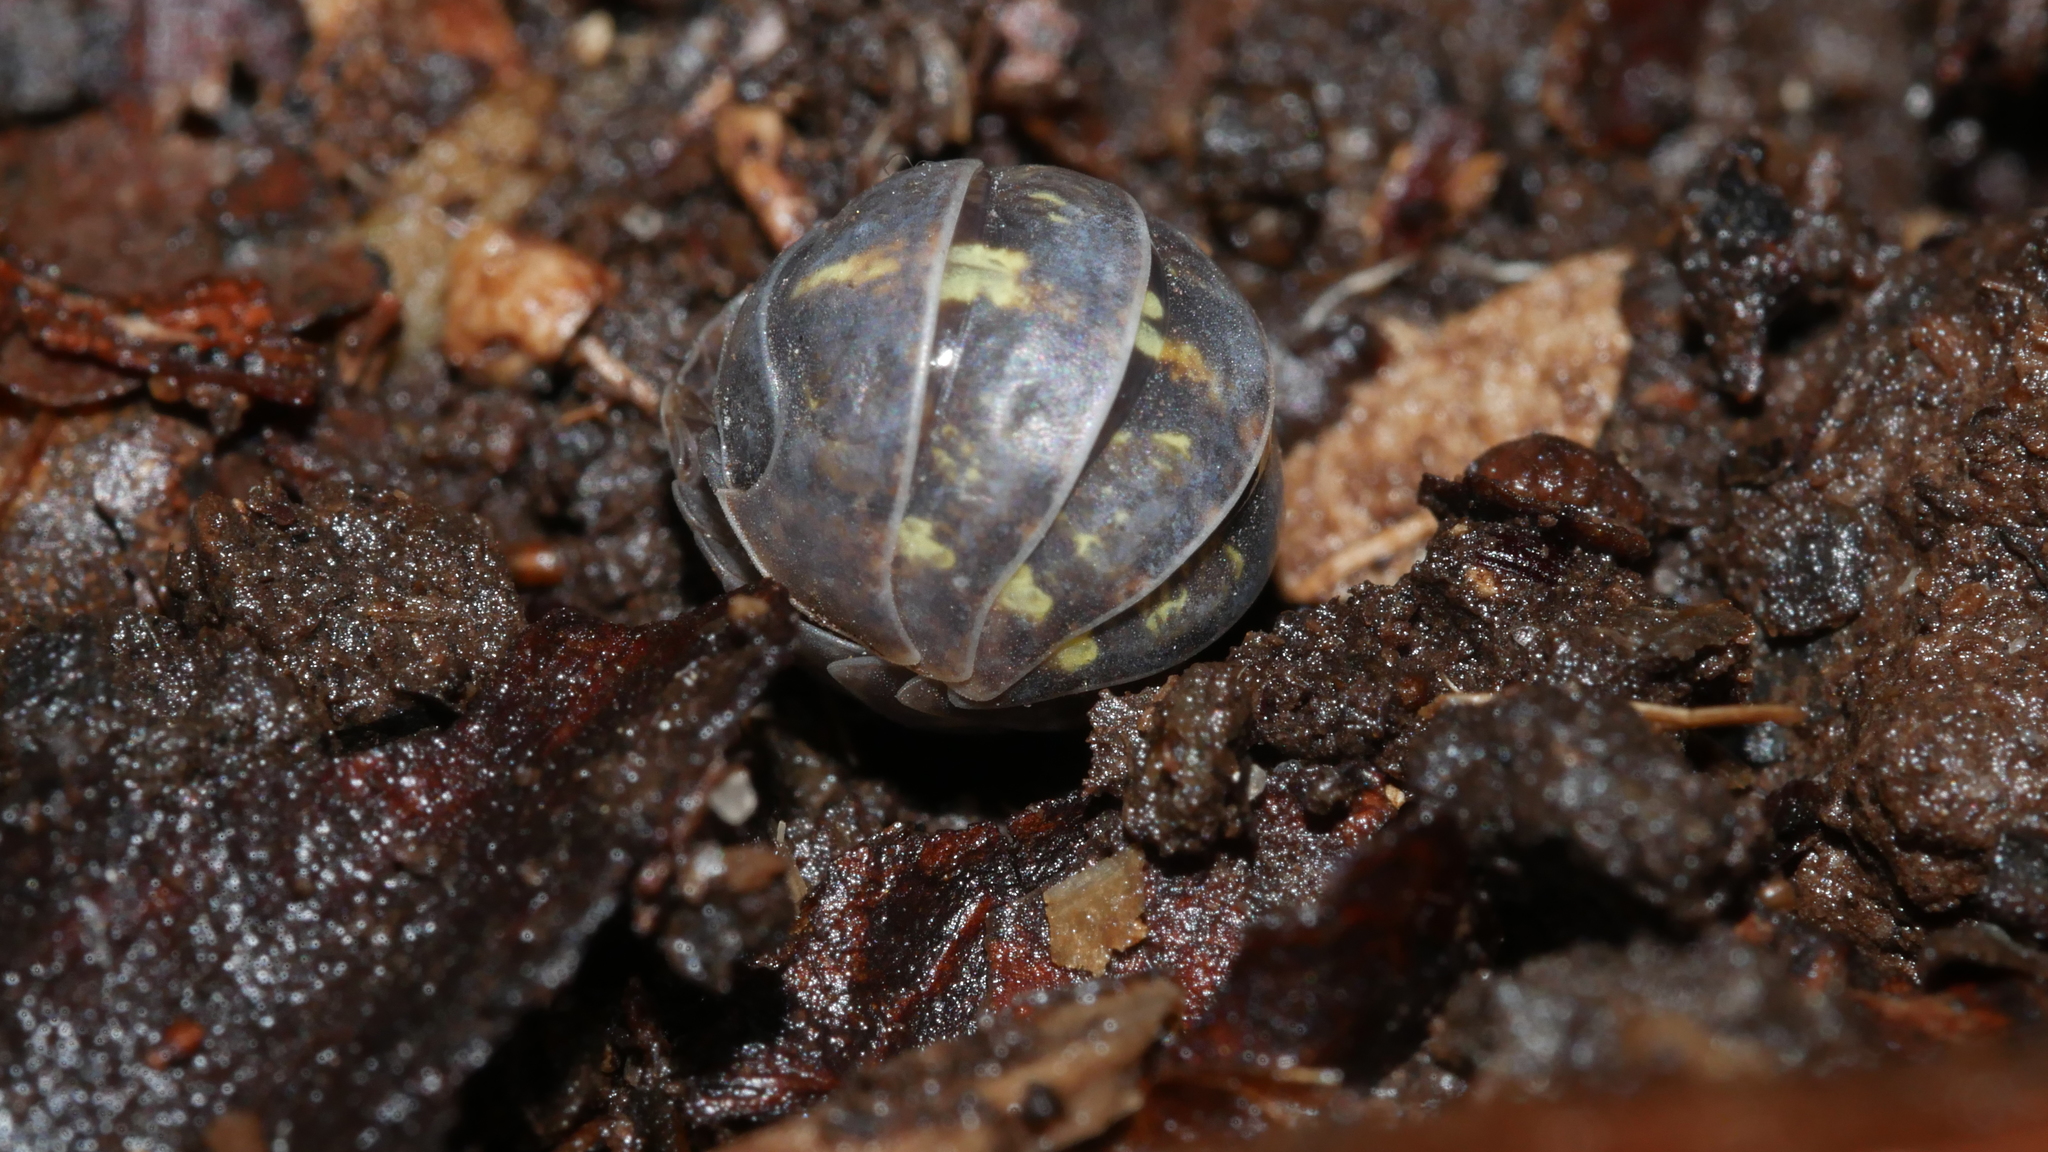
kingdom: Animalia
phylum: Arthropoda
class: Malacostraca
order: Isopoda
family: Armadillidiidae
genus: Armadillidium
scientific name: Armadillidium vulgare
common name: Common pill woodlouse
